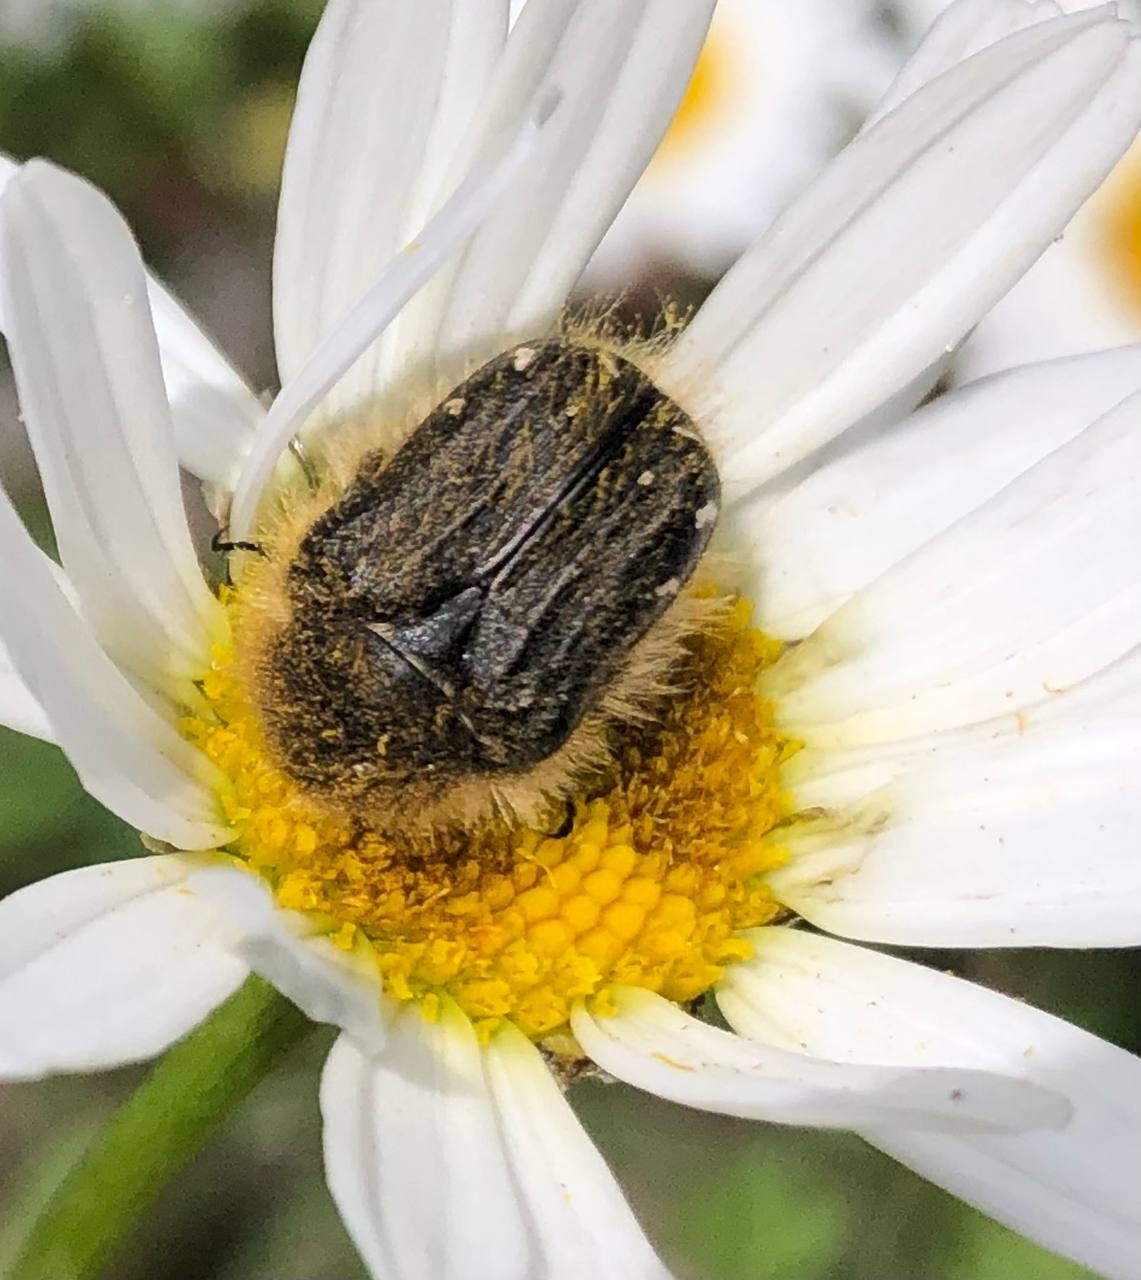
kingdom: Animalia
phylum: Arthropoda
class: Insecta
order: Coleoptera
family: Scarabaeidae
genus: Tropinota
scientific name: Tropinota hirta
